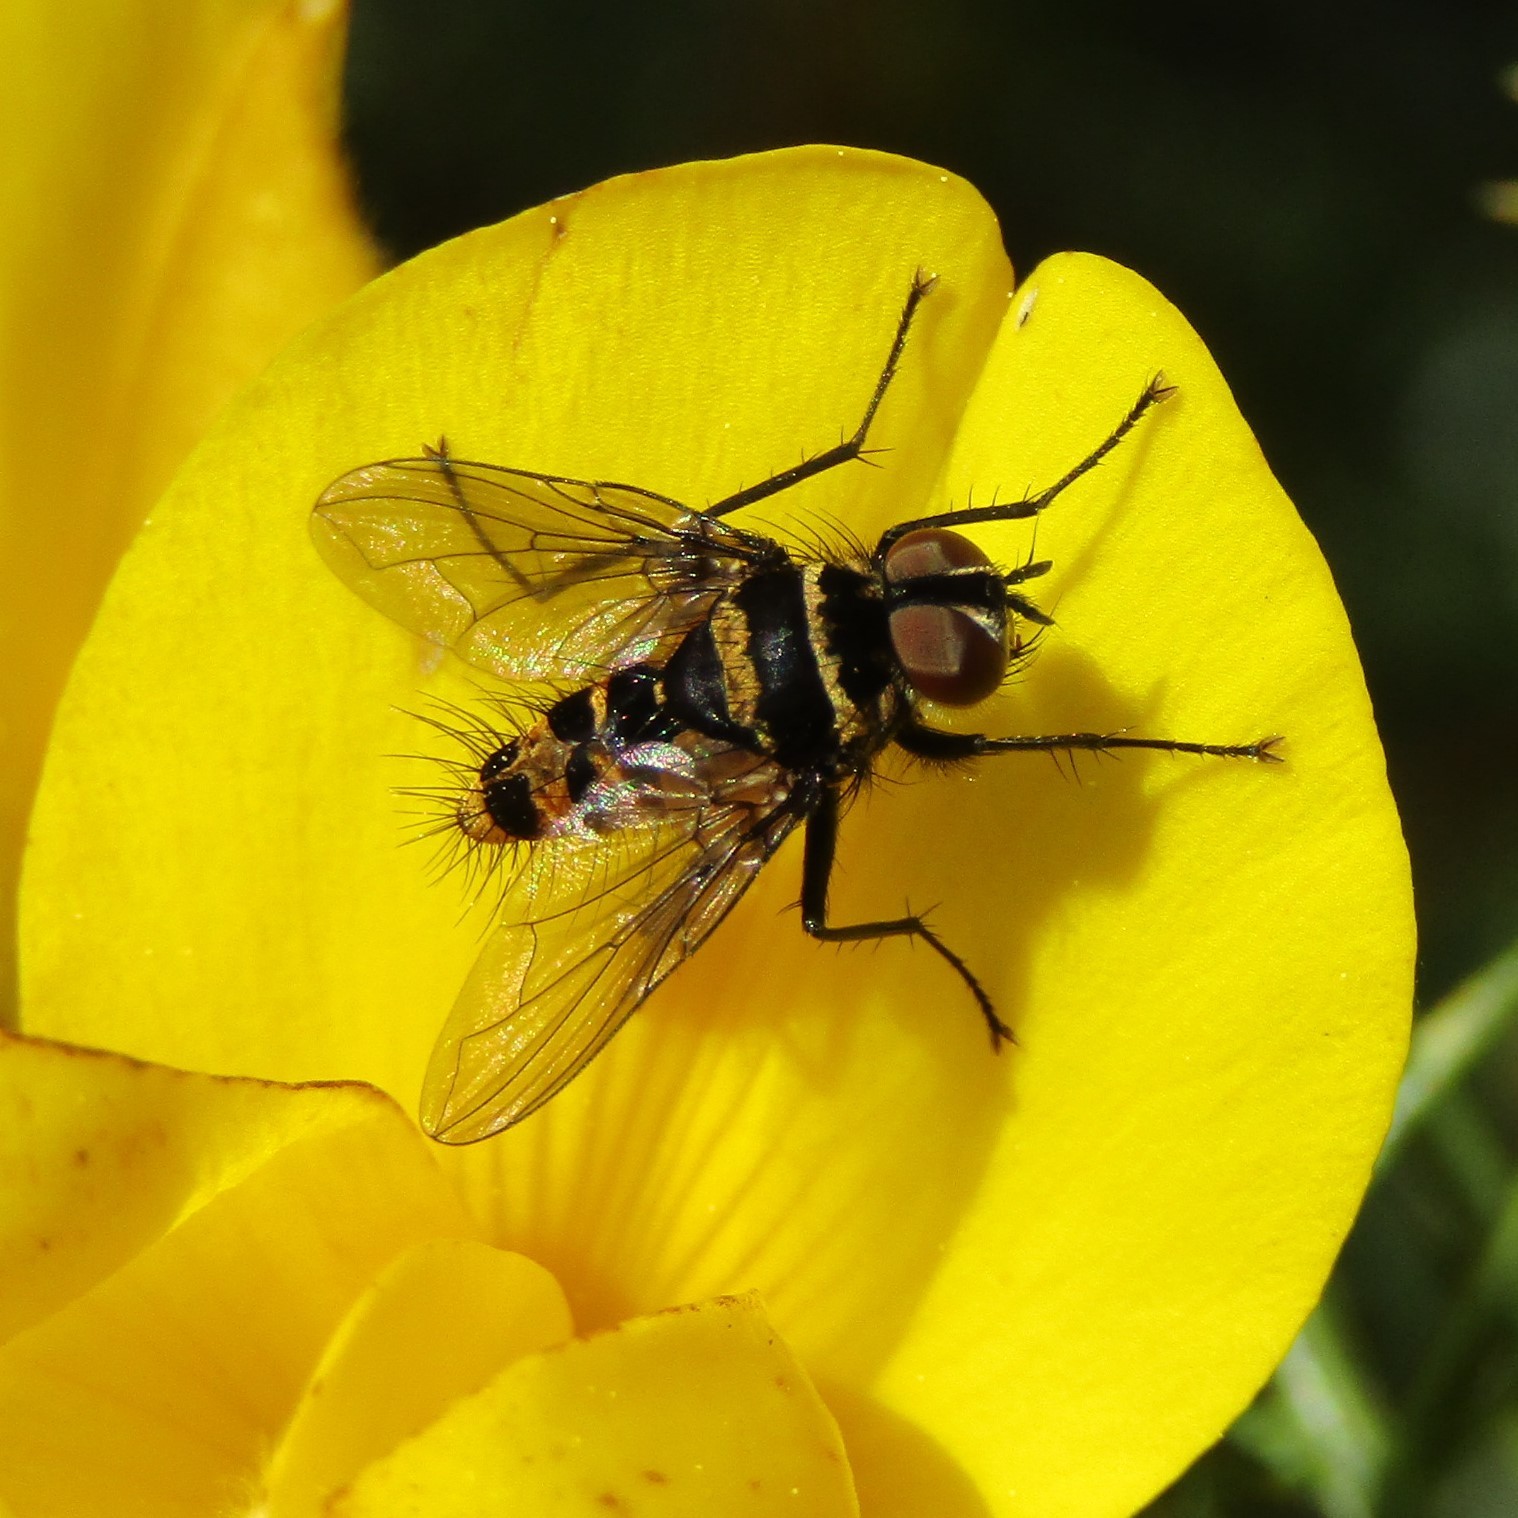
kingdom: Animalia
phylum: Arthropoda
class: Insecta
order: Diptera
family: Tachinidae
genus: Trigonospila
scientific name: Trigonospila brevifacies
